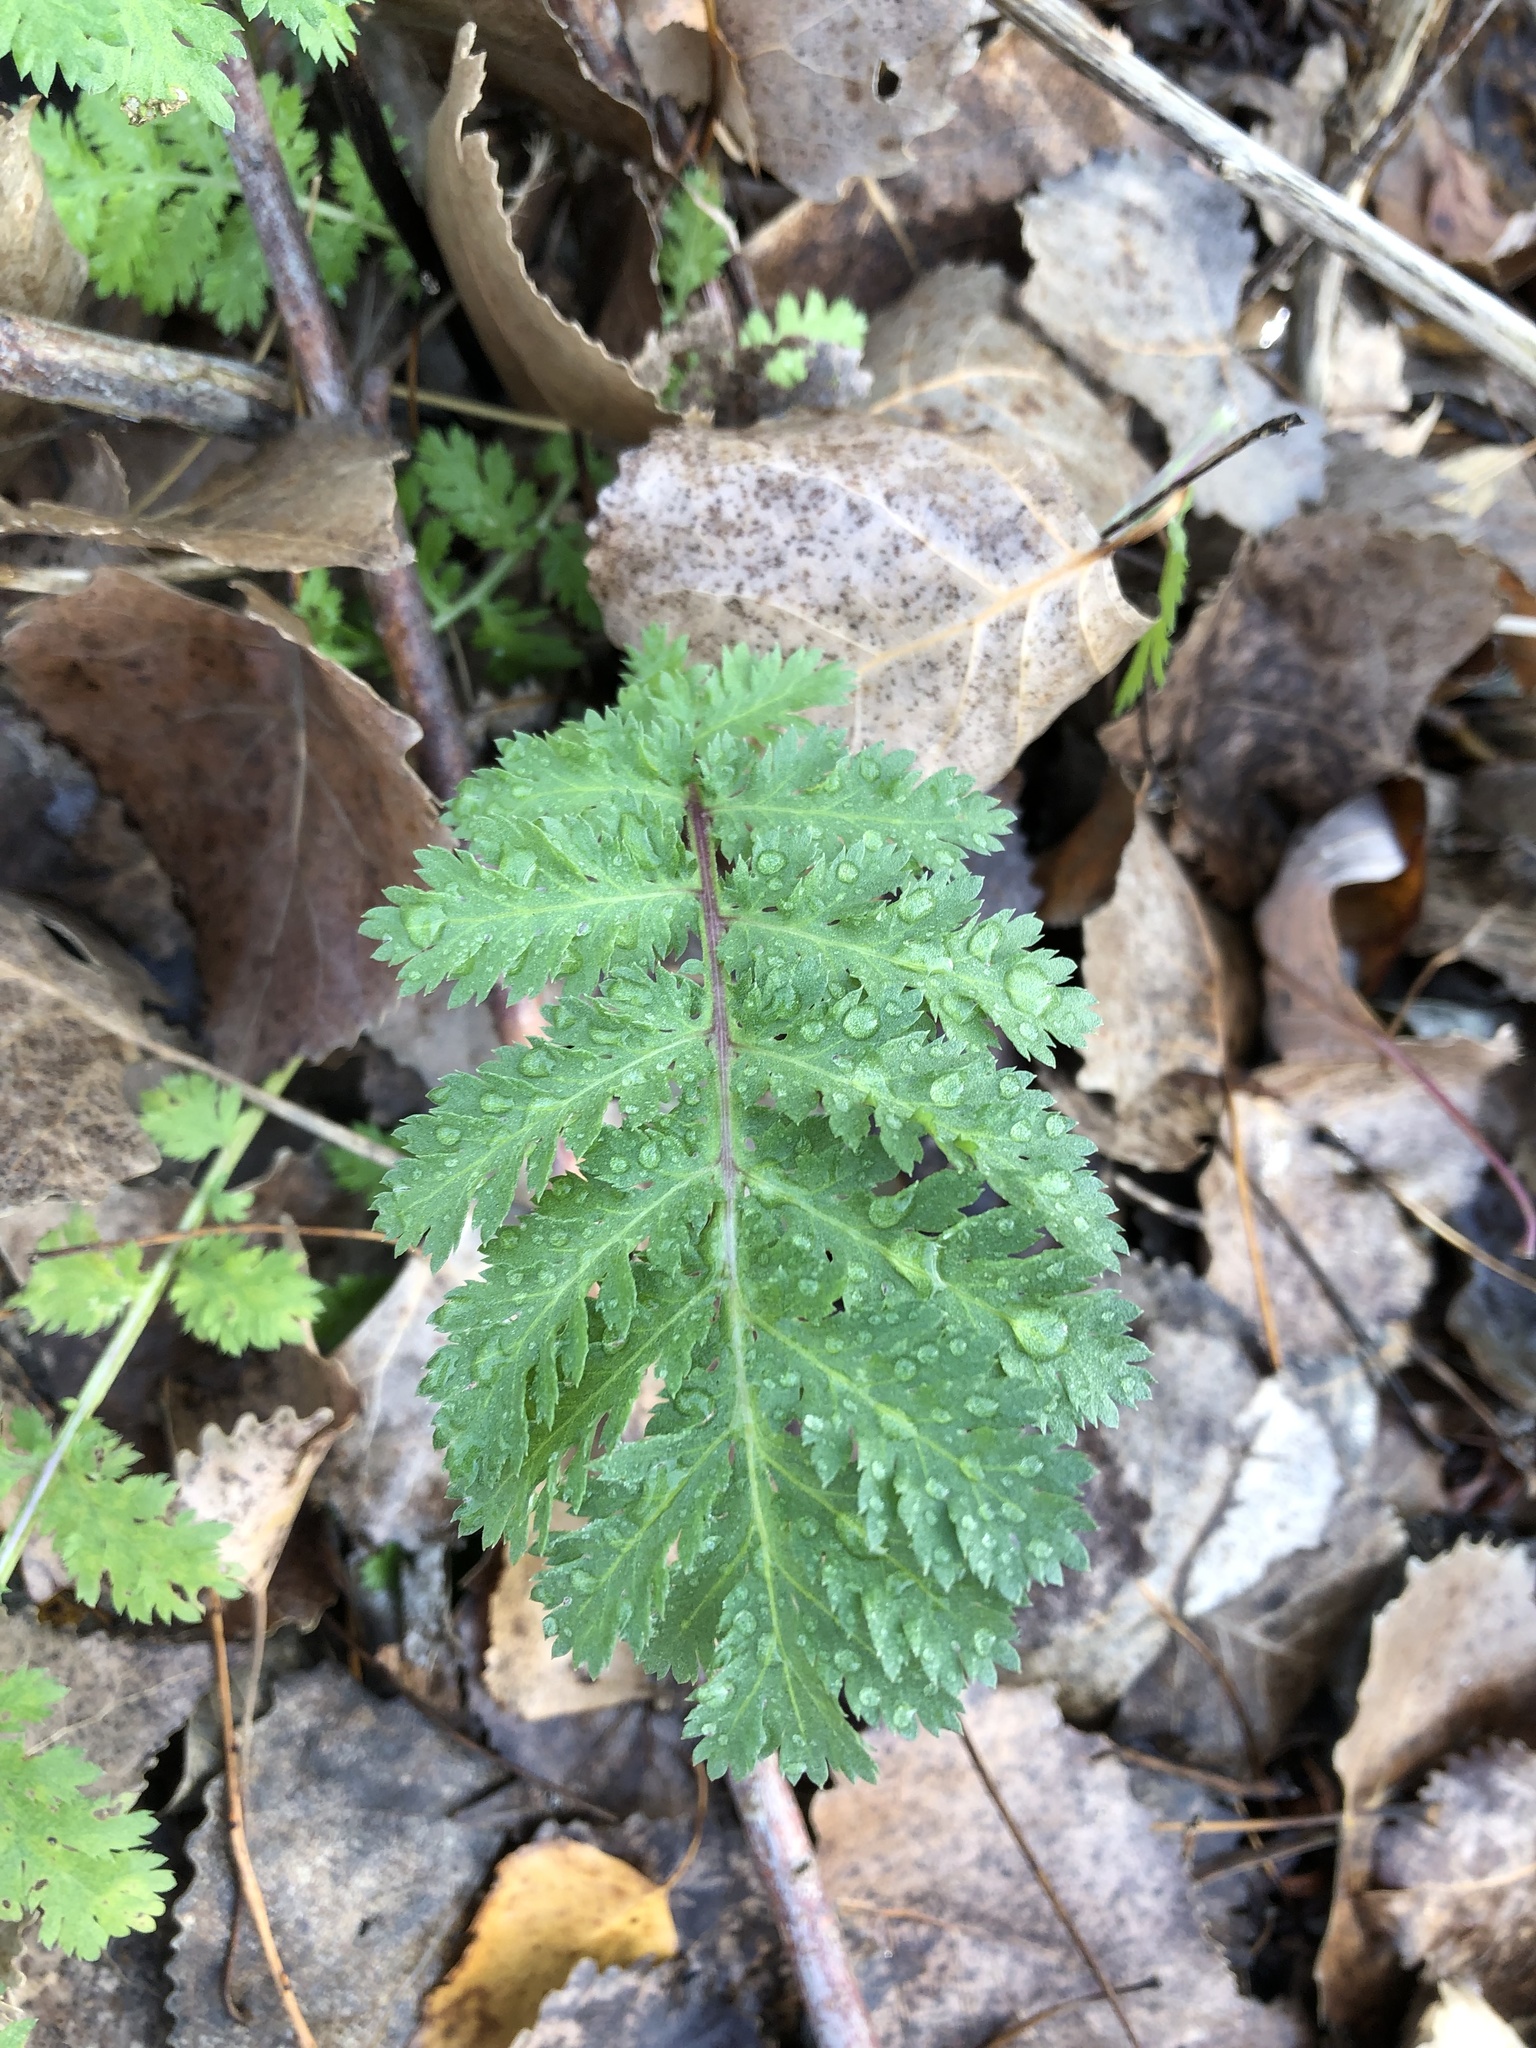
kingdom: Plantae
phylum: Tracheophyta
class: Magnoliopsida
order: Asterales
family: Asteraceae
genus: Tanacetum
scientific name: Tanacetum vulgare
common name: Common tansy
